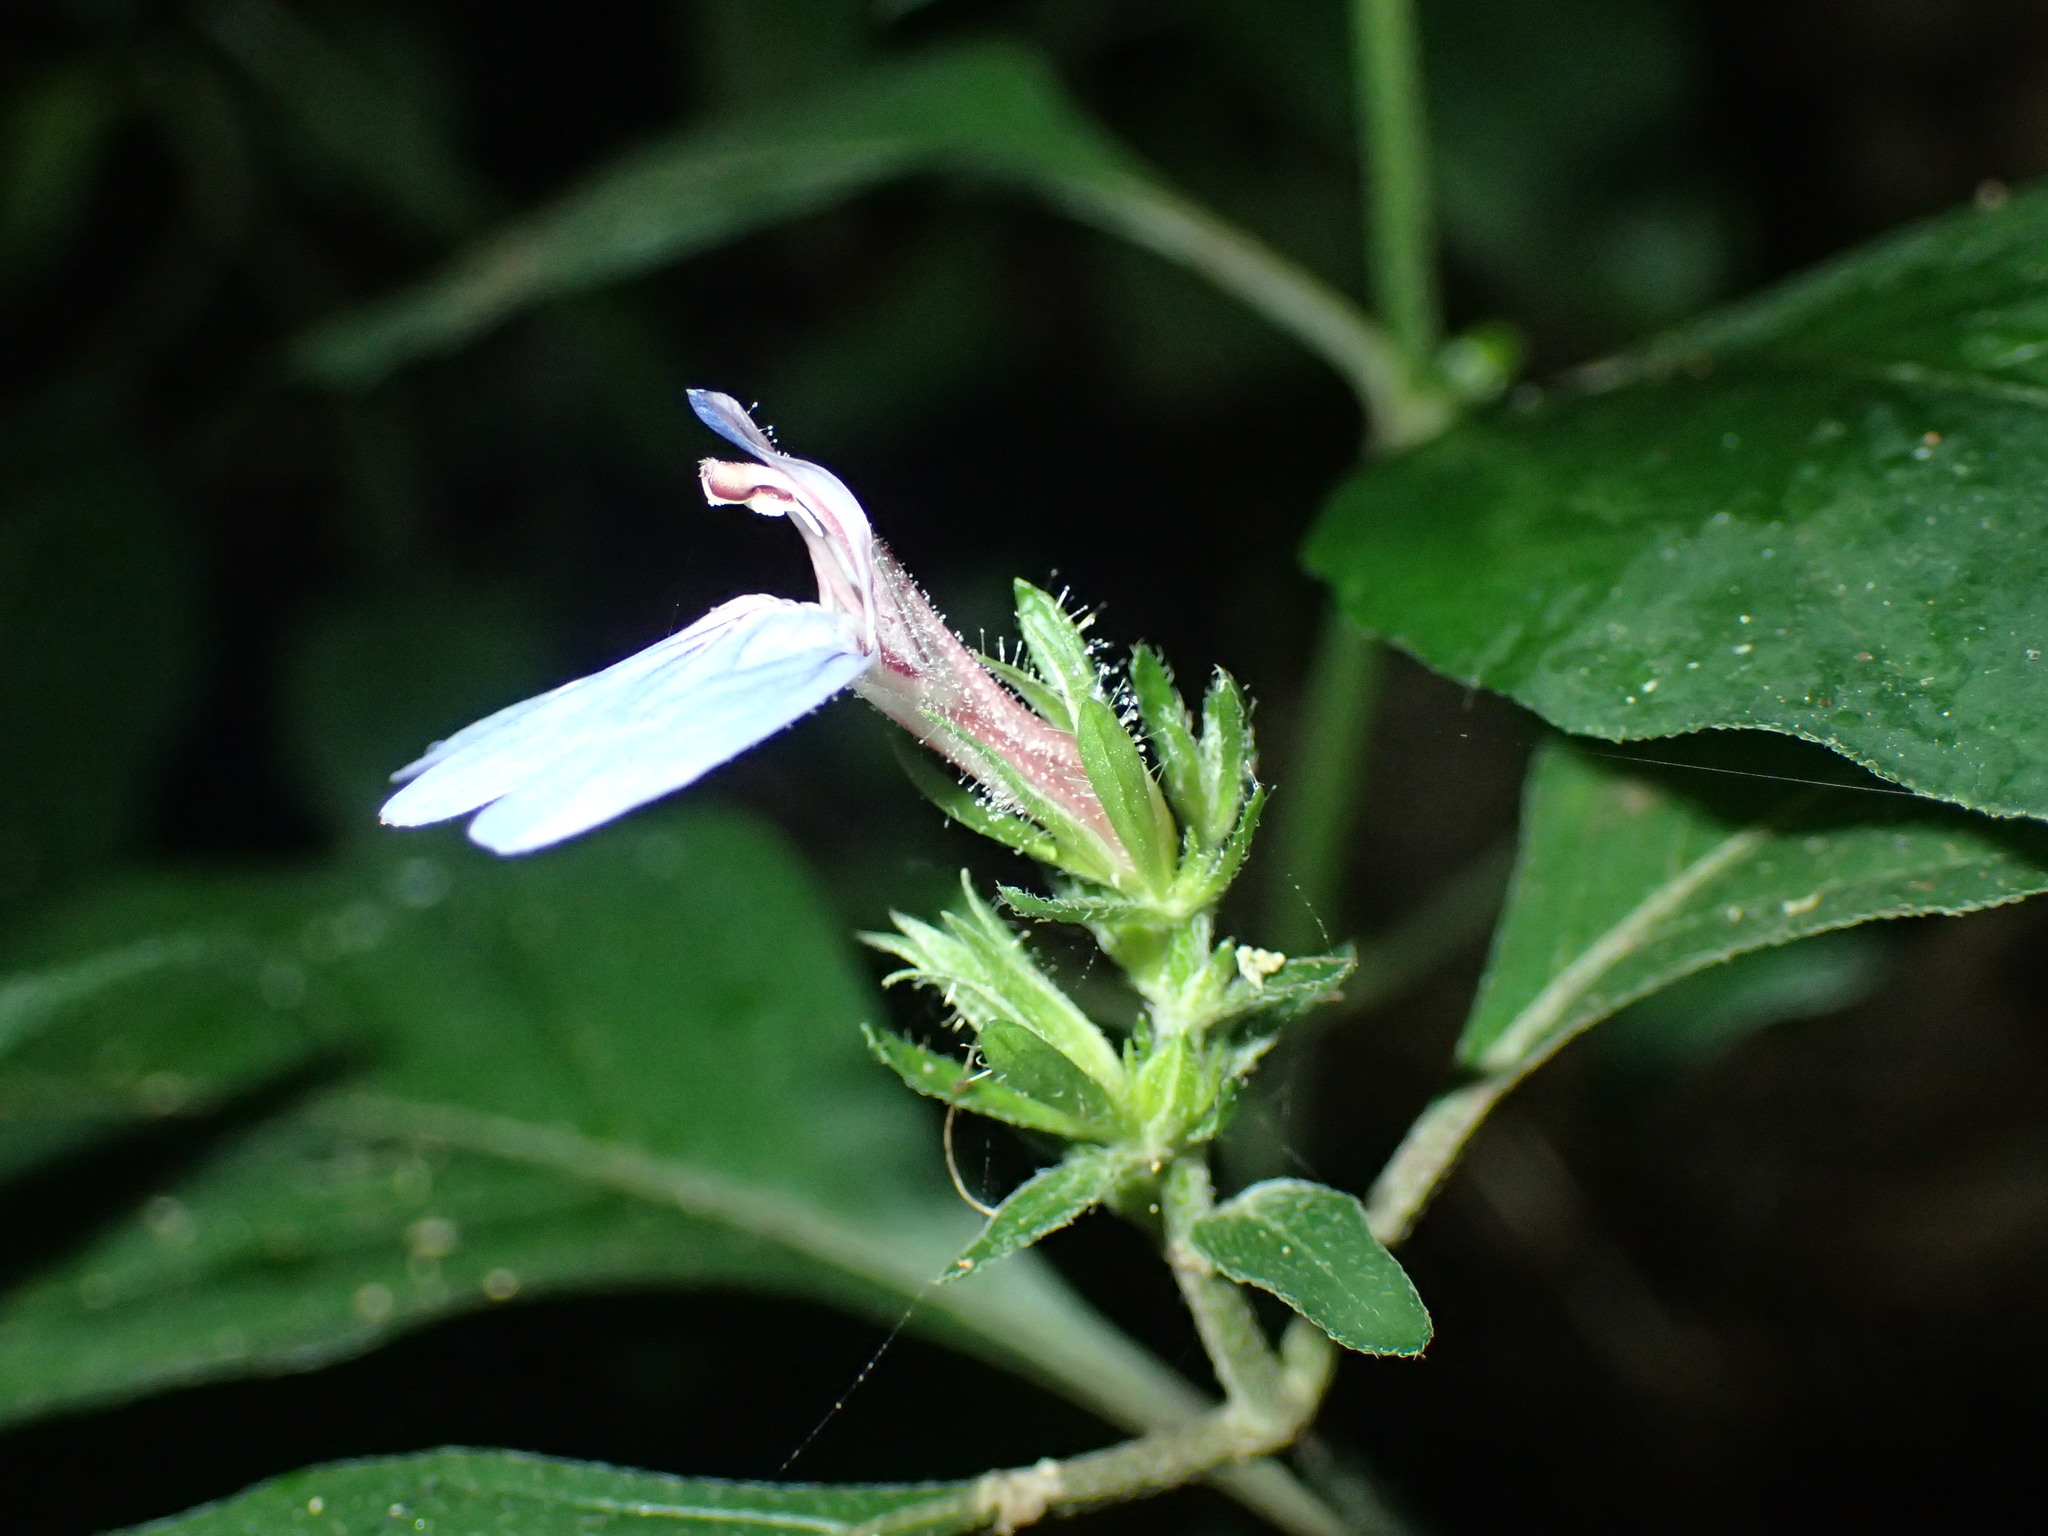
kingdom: Plantae
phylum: Tracheophyta
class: Magnoliopsida
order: Lamiales
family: Acanthaceae
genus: Justicia
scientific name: Justicia petiolaris
